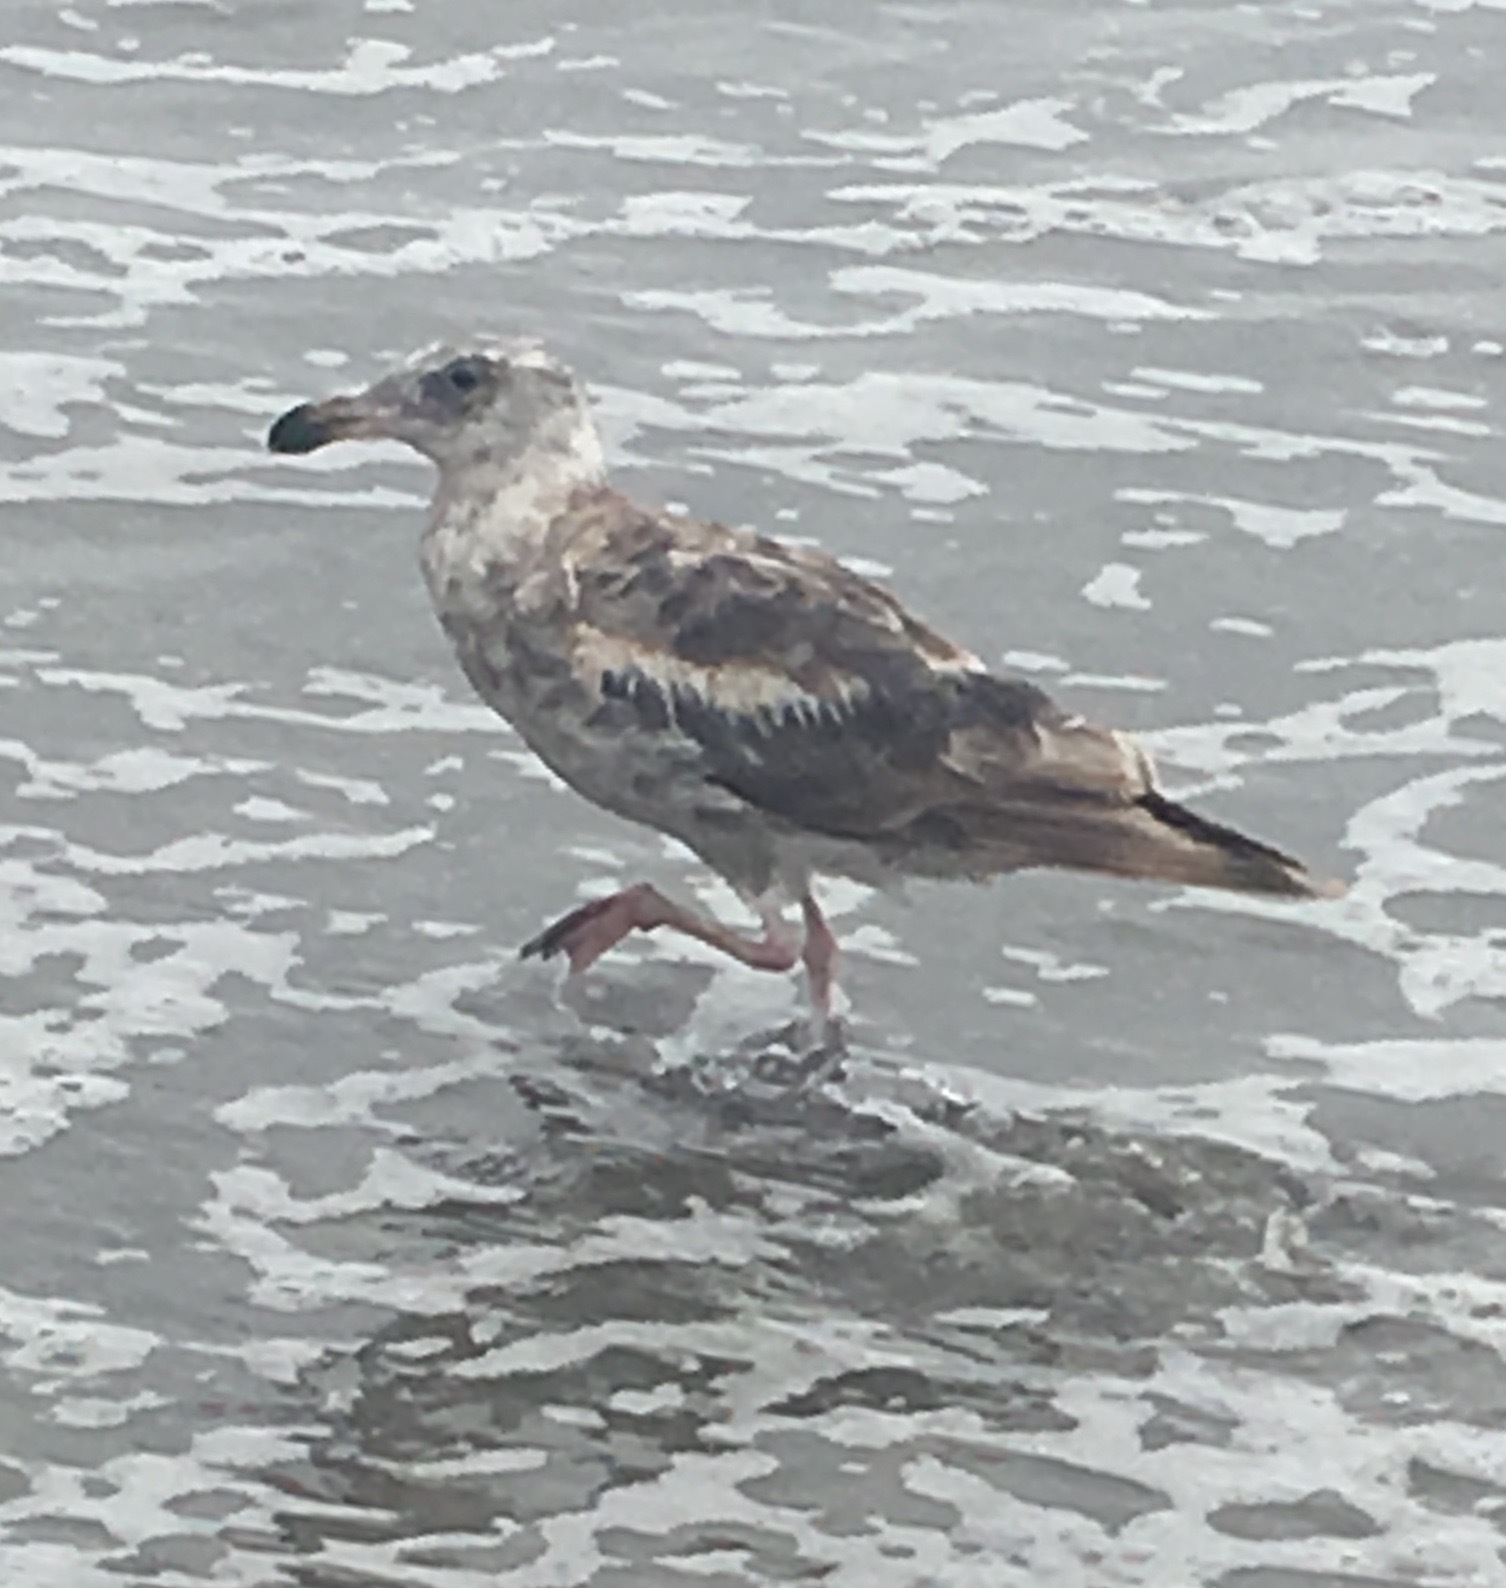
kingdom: Animalia
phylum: Chordata
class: Aves
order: Charadriiformes
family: Laridae
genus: Larus
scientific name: Larus occidentalis
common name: Western gull
